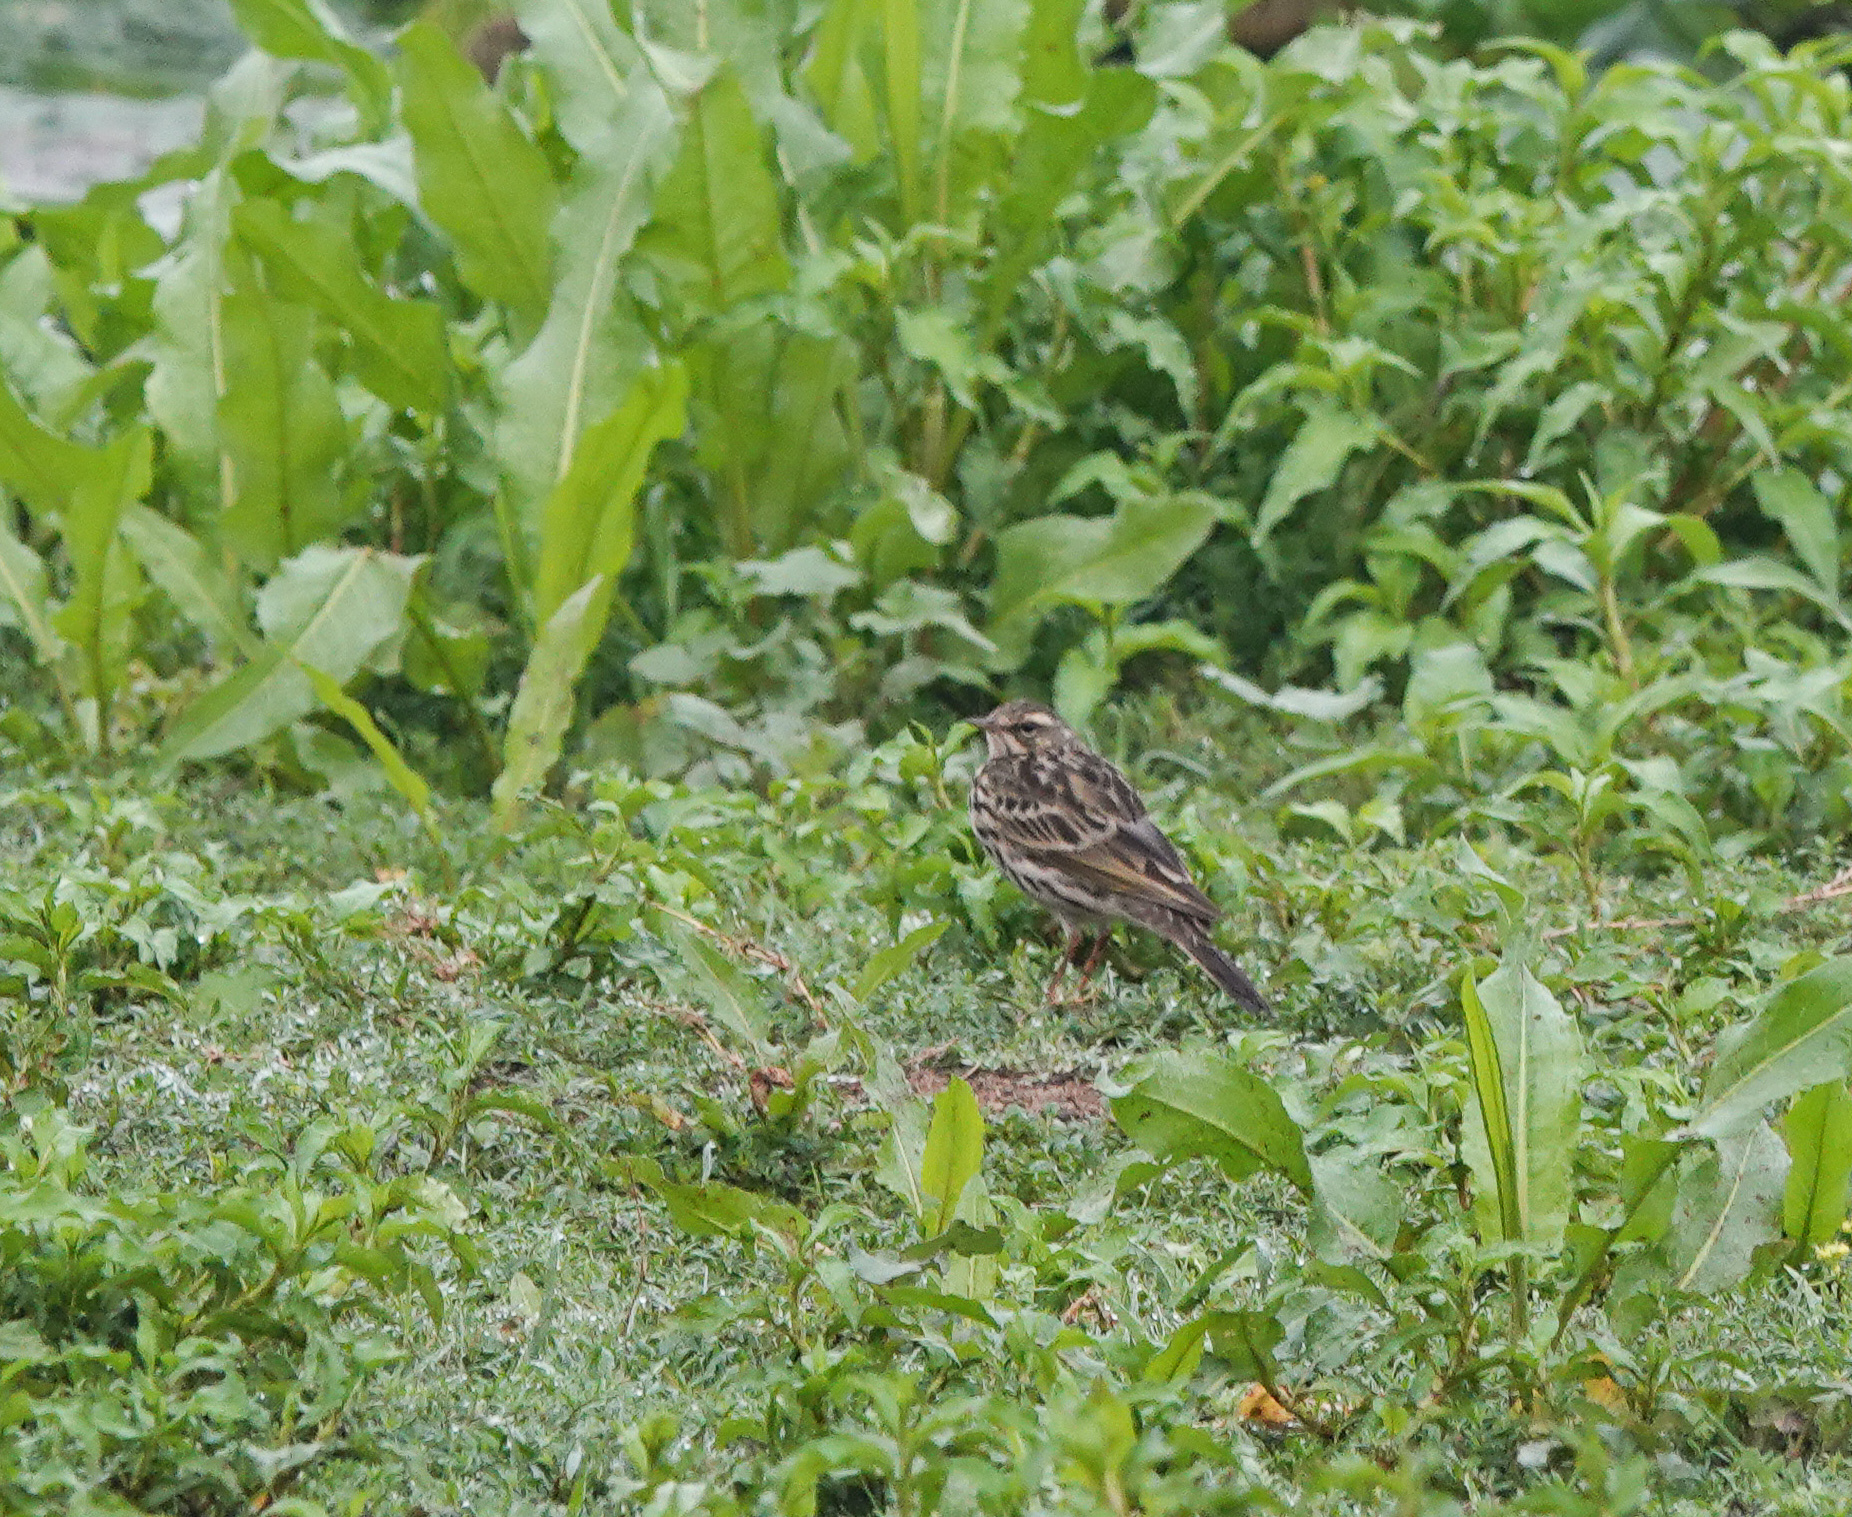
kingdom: Animalia
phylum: Chordata
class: Aves
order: Passeriformes
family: Motacillidae
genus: Anthus
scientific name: Anthus roseatus
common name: Rosy pipit
